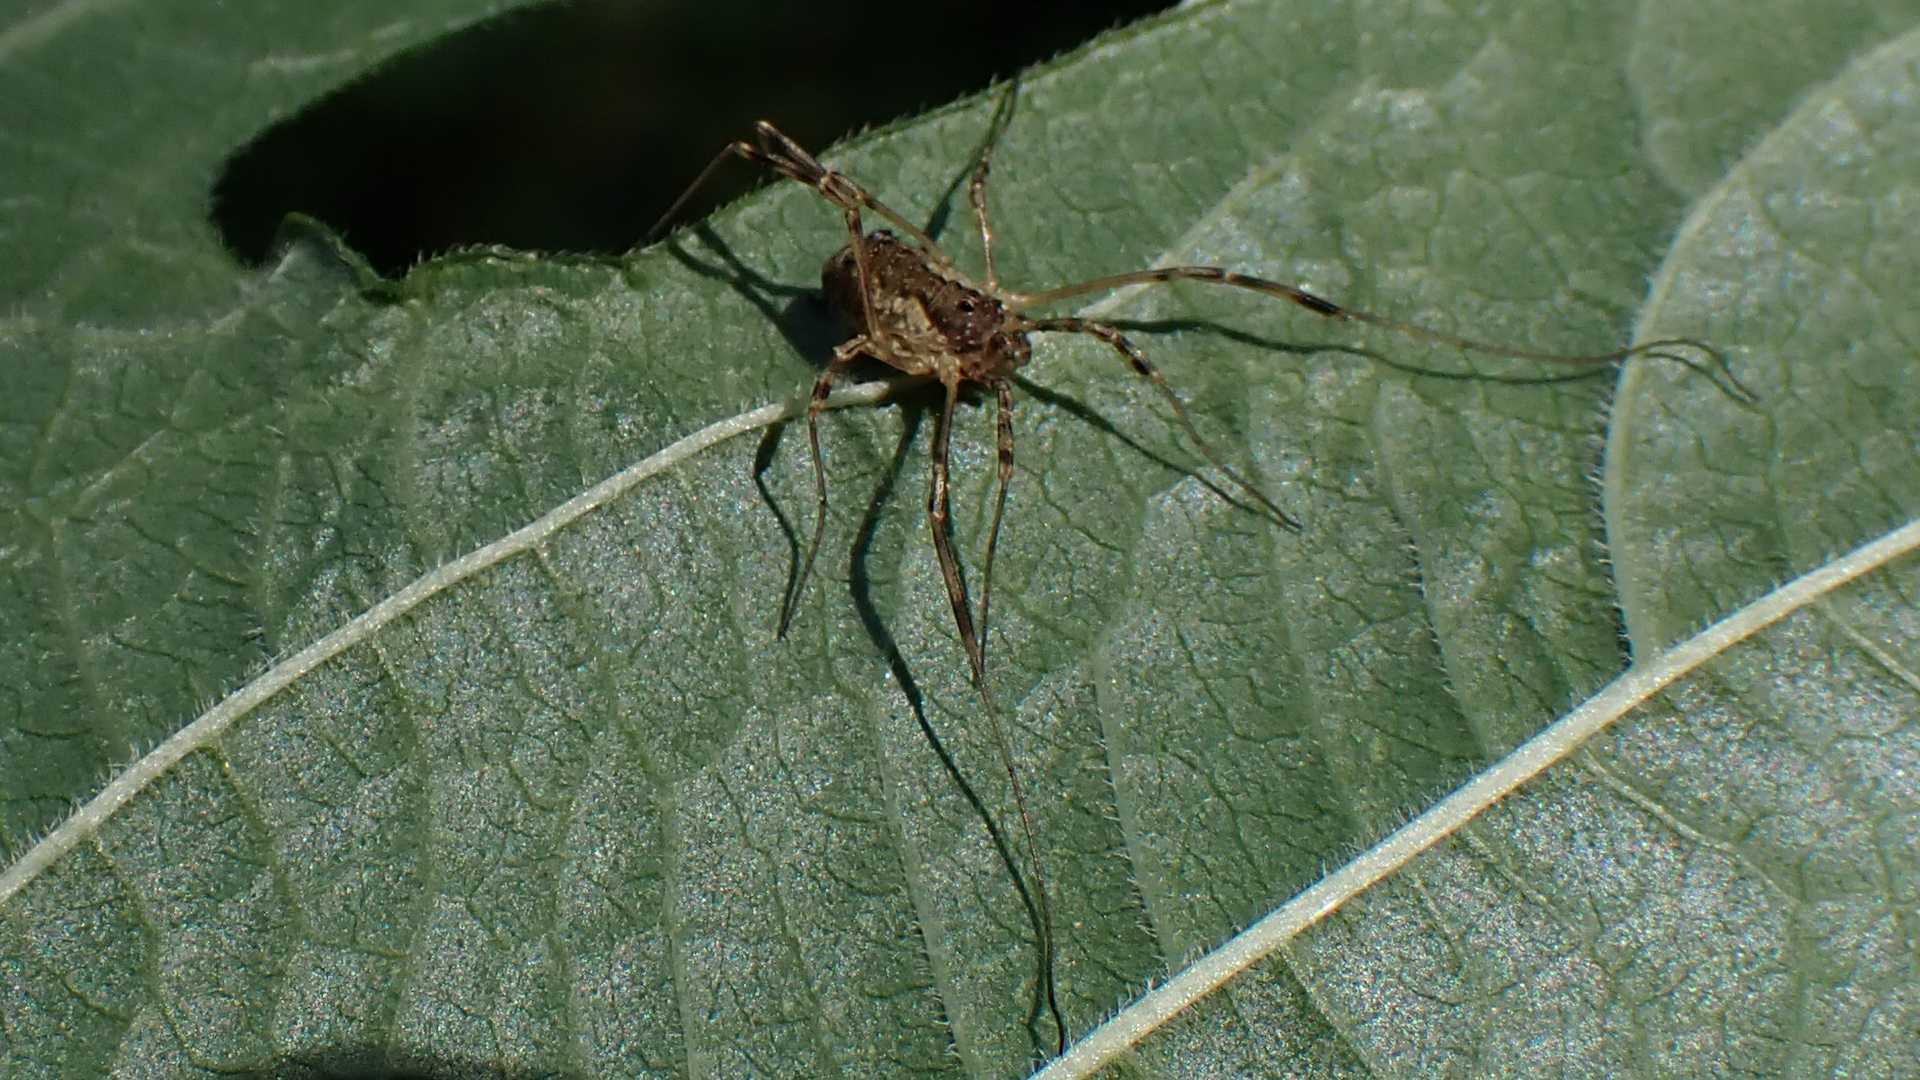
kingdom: Animalia
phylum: Arthropoda
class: Arachnida
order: Opiliones
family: Phalangiidae
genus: Oligolophus
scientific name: Oligolophus tridens
